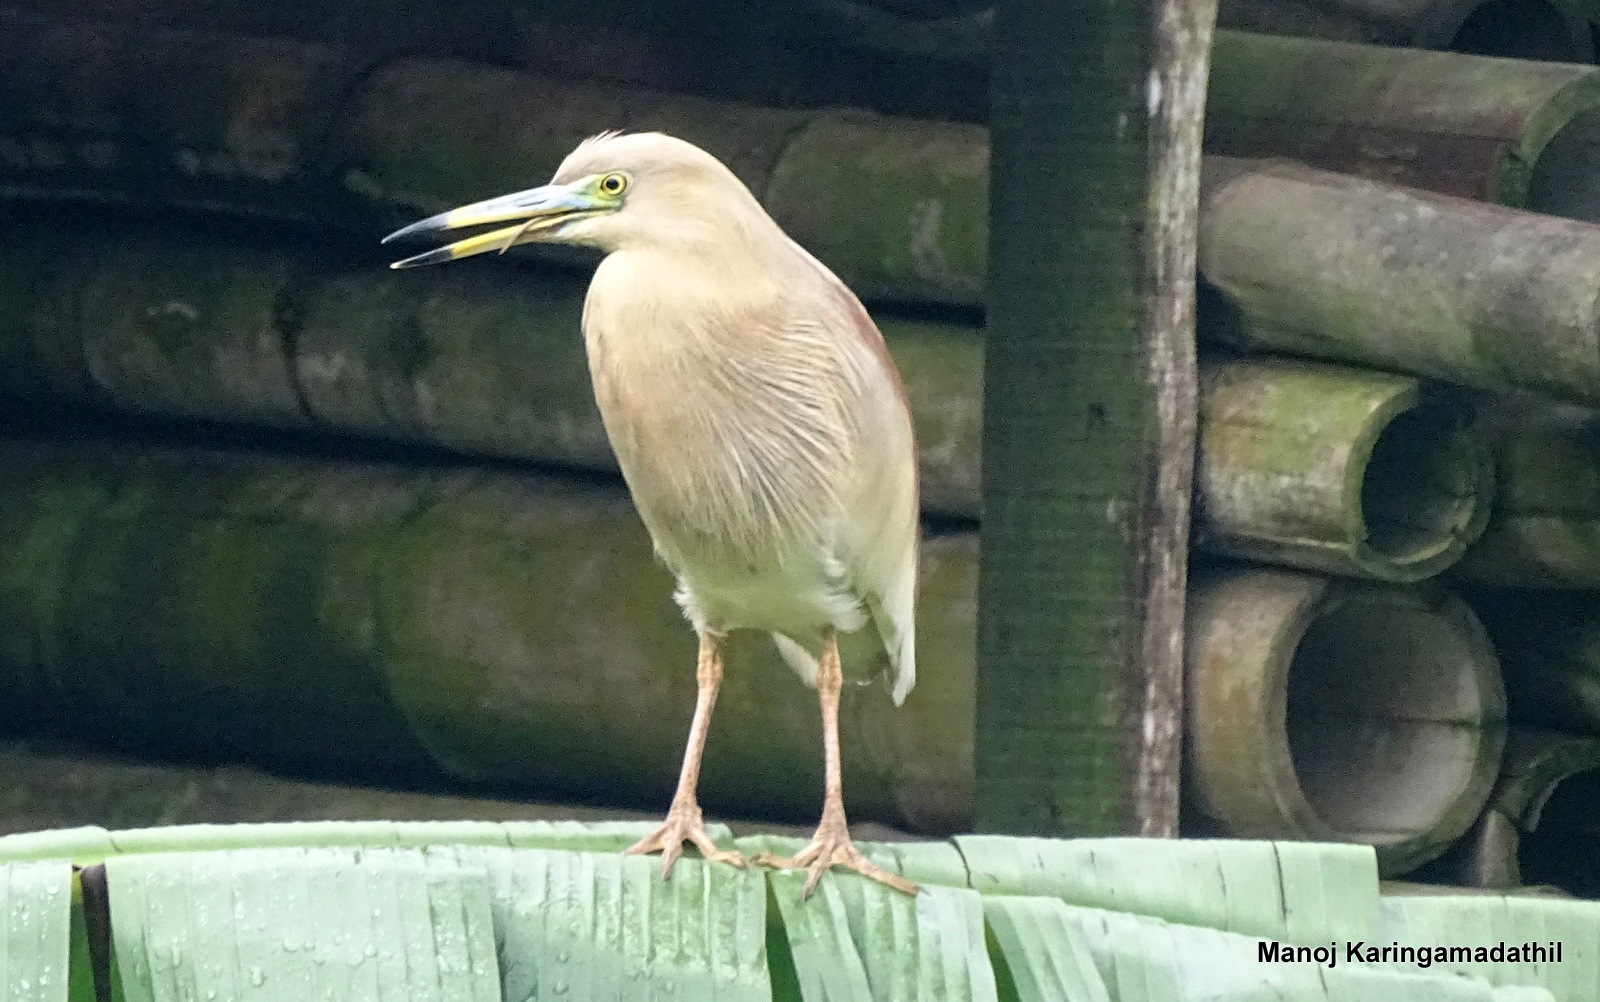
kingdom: Animalia
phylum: Chordata
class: Aves
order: Pelecaniformes
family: Ardeidae
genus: Ardeola
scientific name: Ardeola grayii
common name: Indian pond heron
